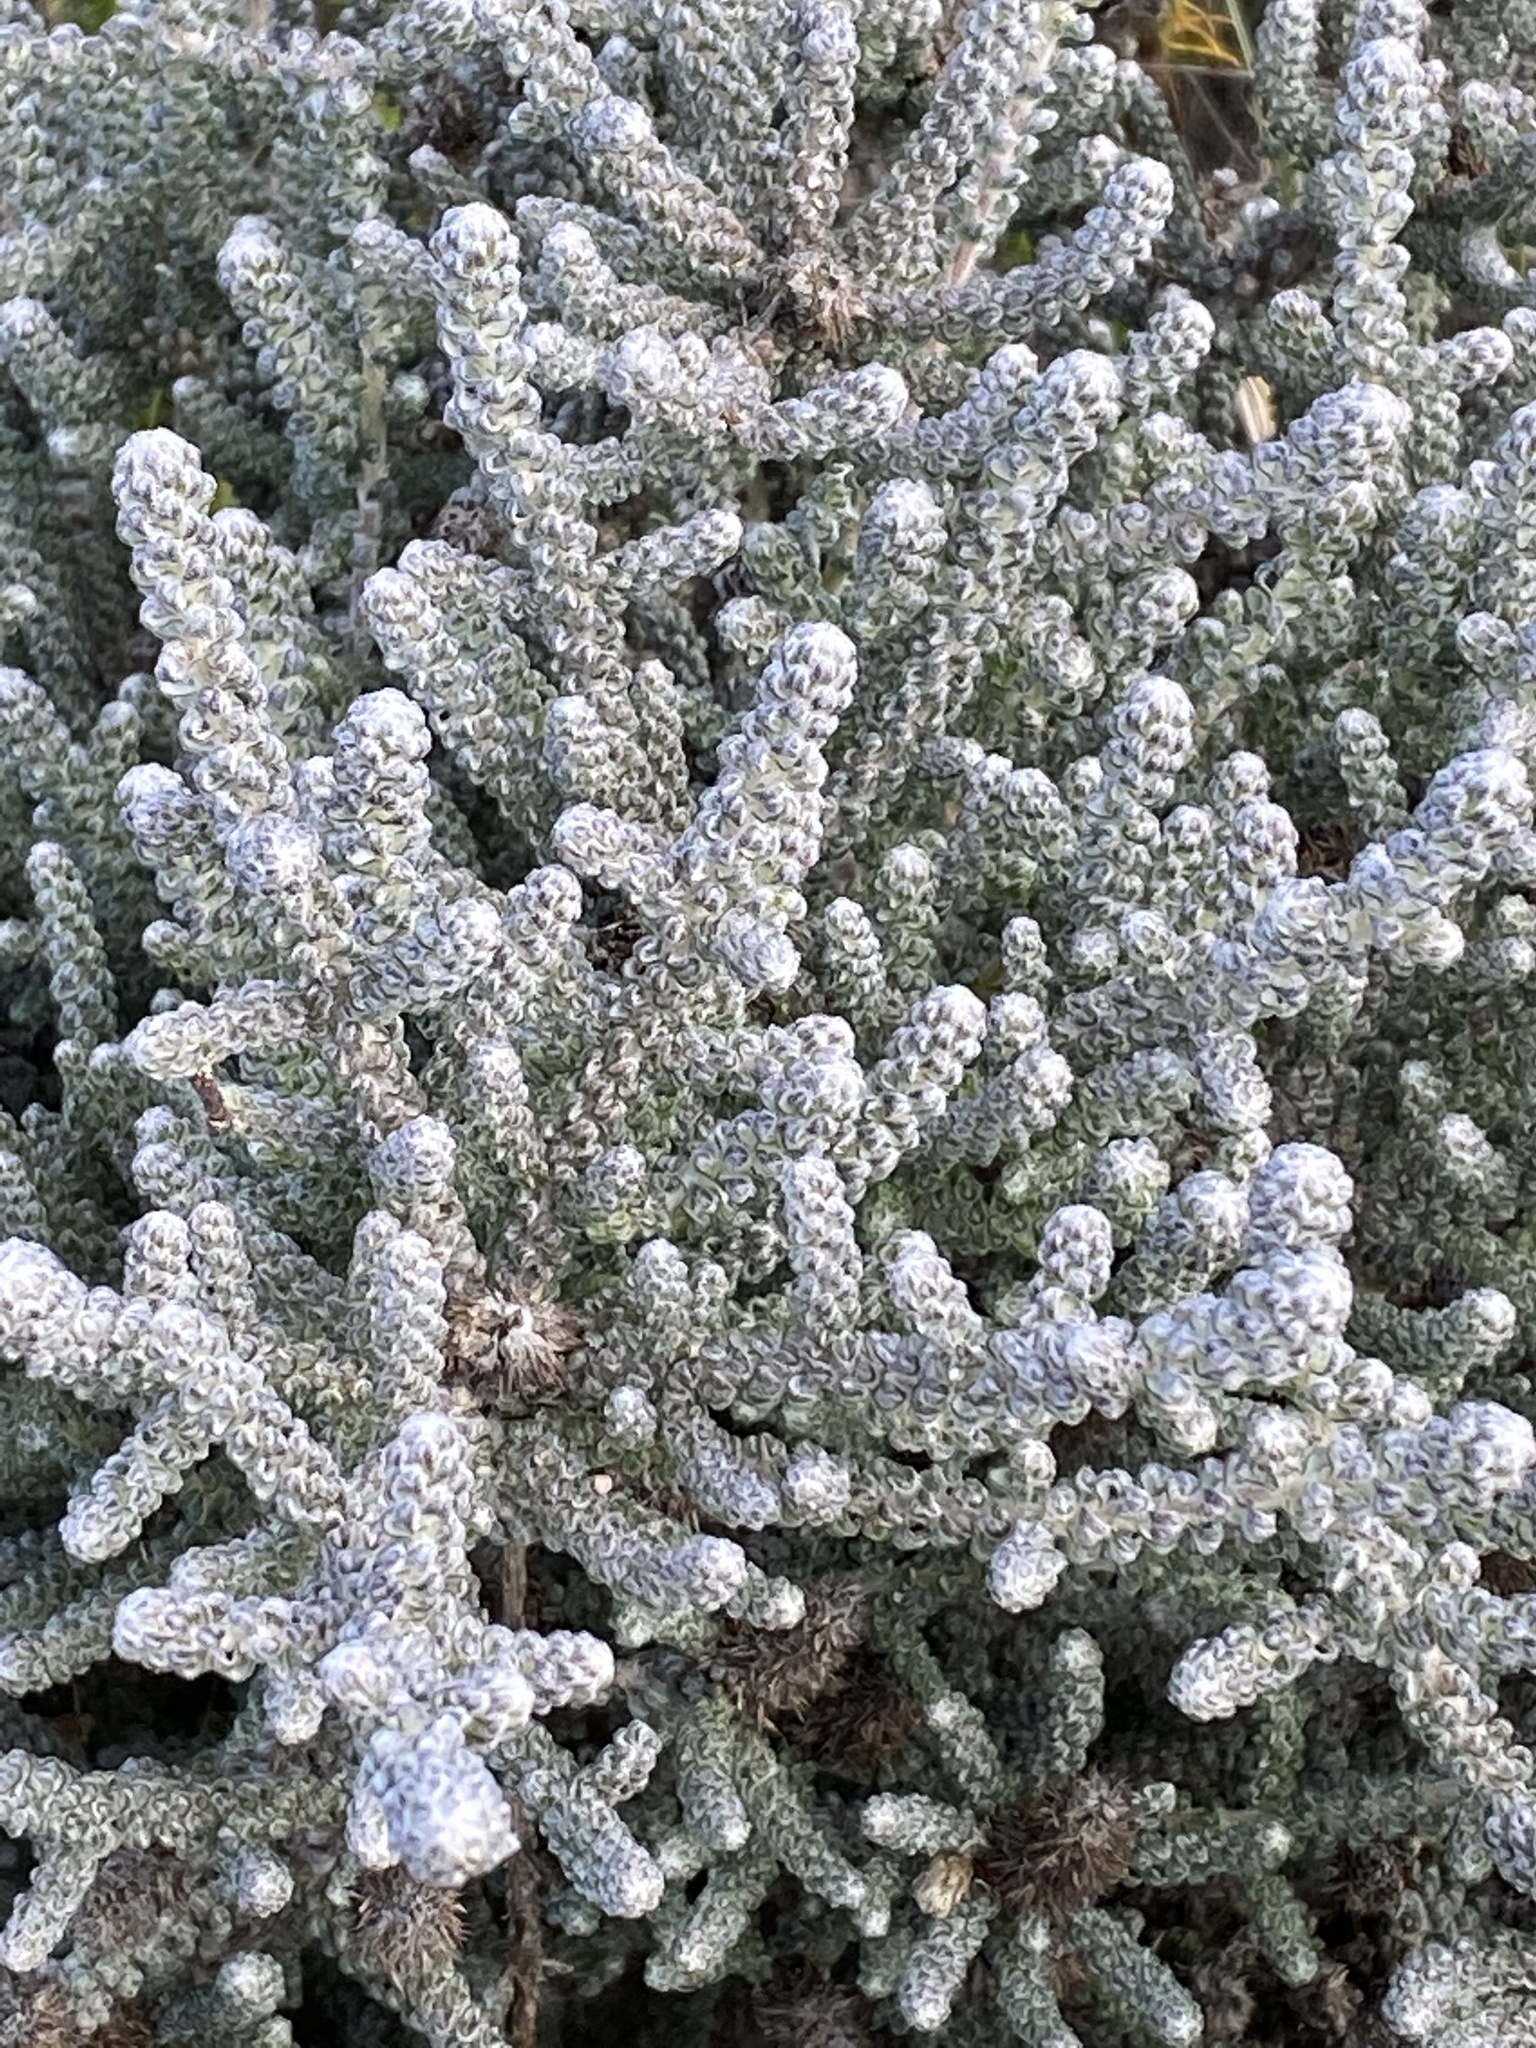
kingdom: Plantae
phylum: Tracheophyta
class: Magnoliopsida
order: Asterales
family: Asteraceae
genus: Stoebe
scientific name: Stoebe muirii
